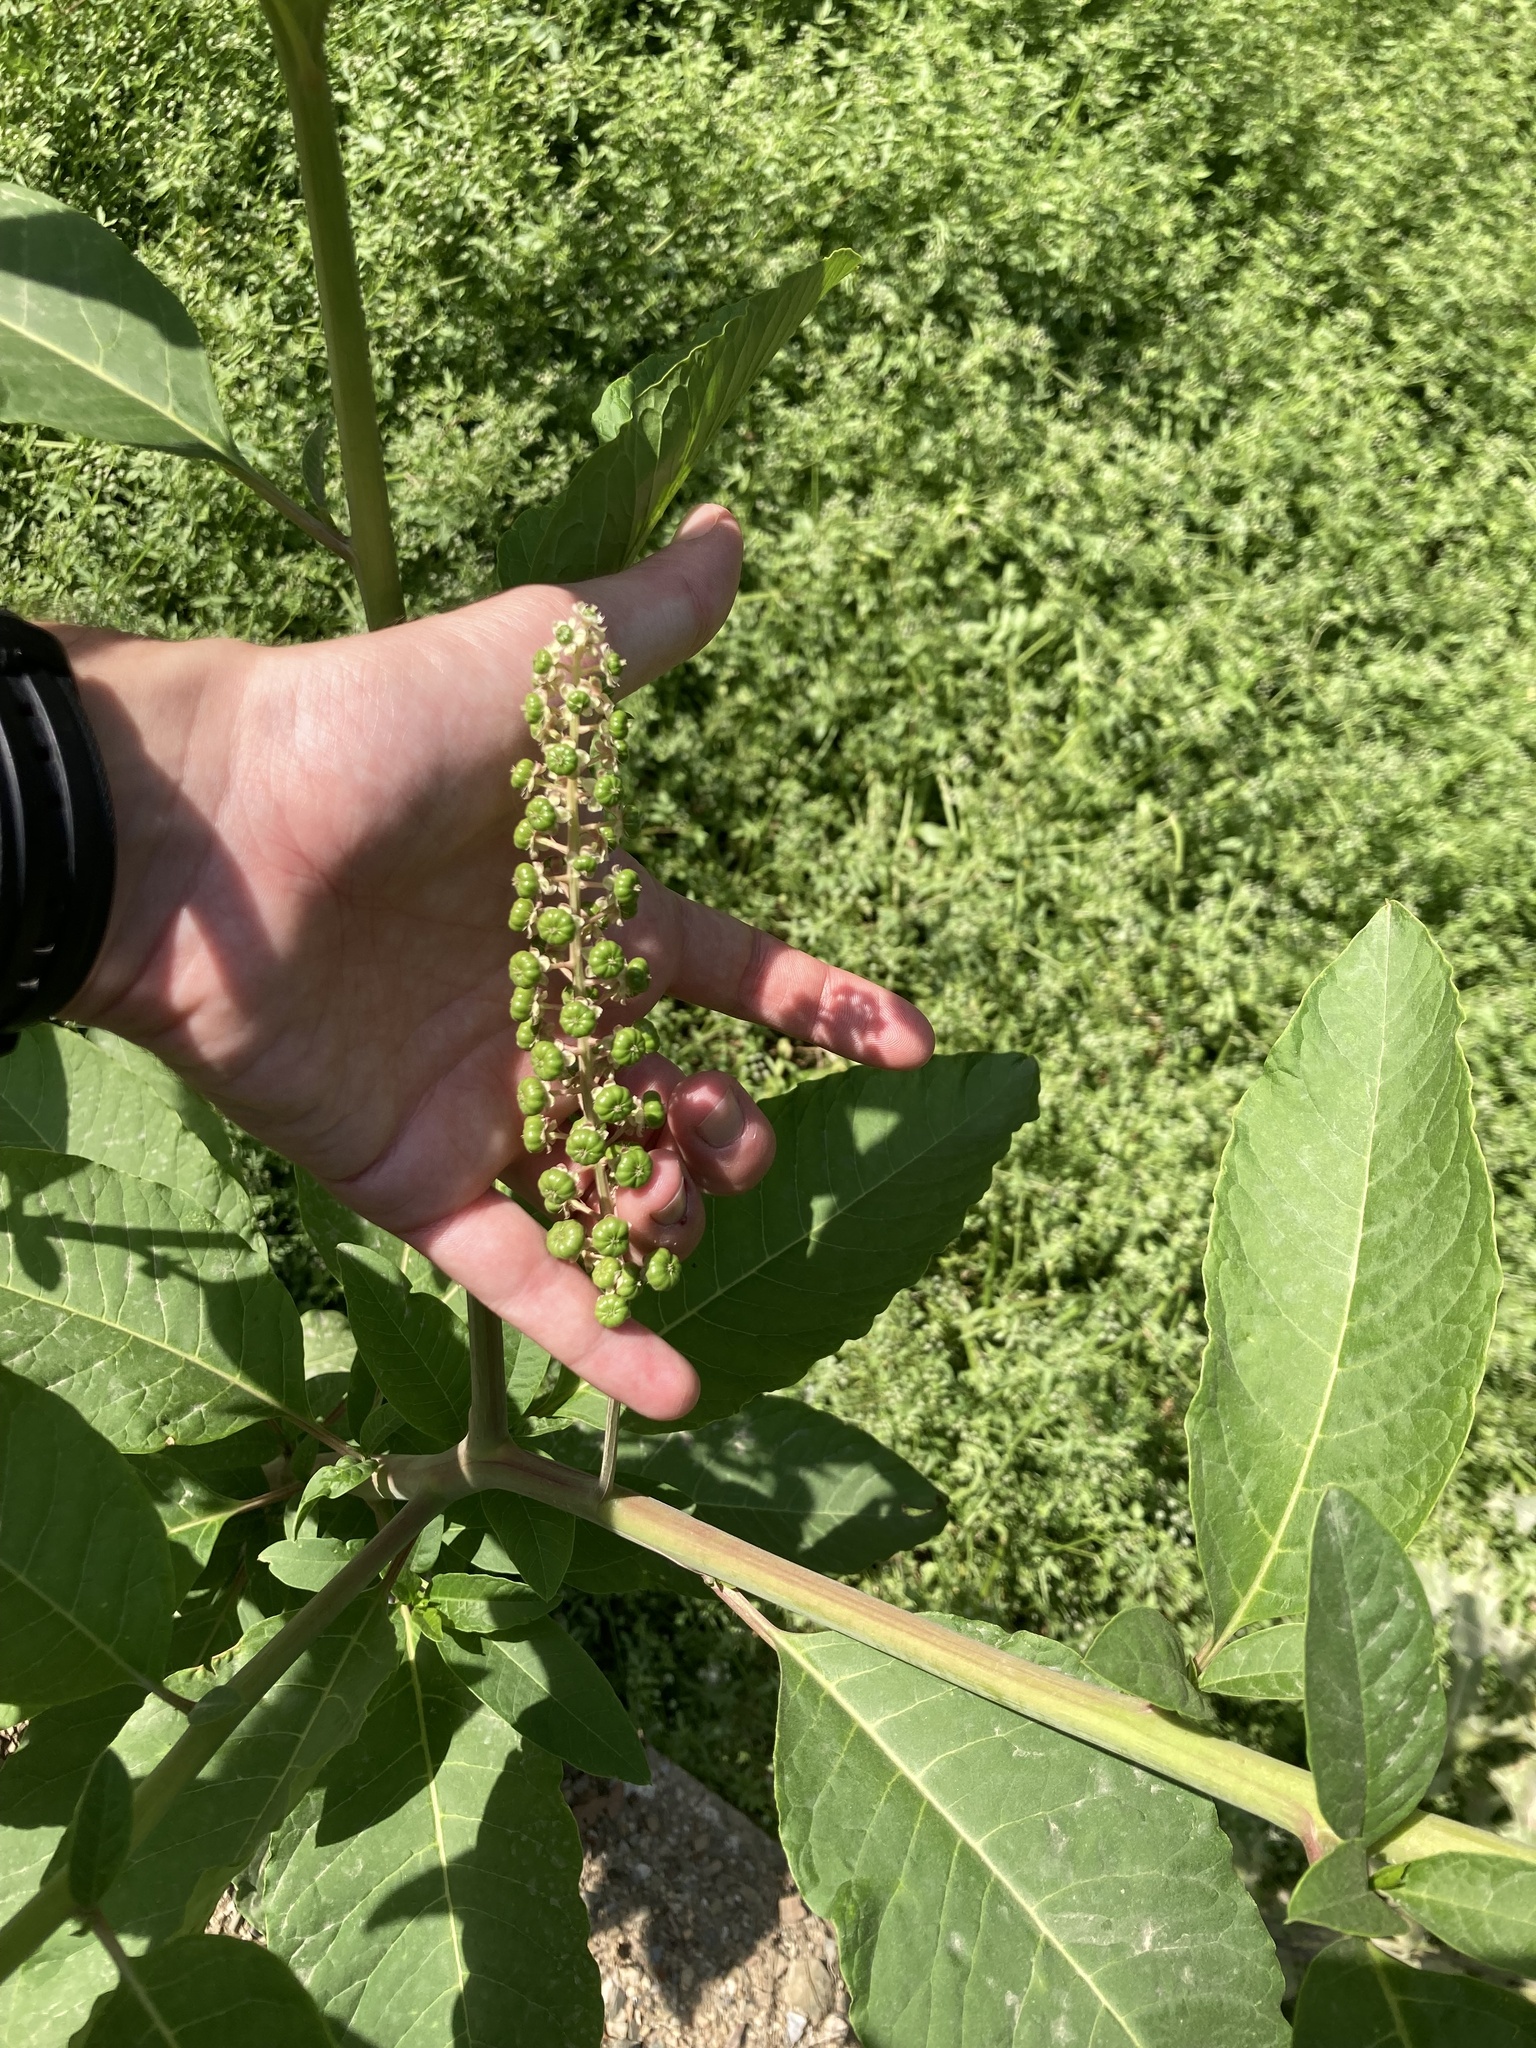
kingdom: Plantae
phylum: Tracheophyta
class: Magnoliopsida
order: Caryophyllales
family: Phytolaccaceae
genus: Phytolacca
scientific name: Phytolacca americana
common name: American pokeweed
